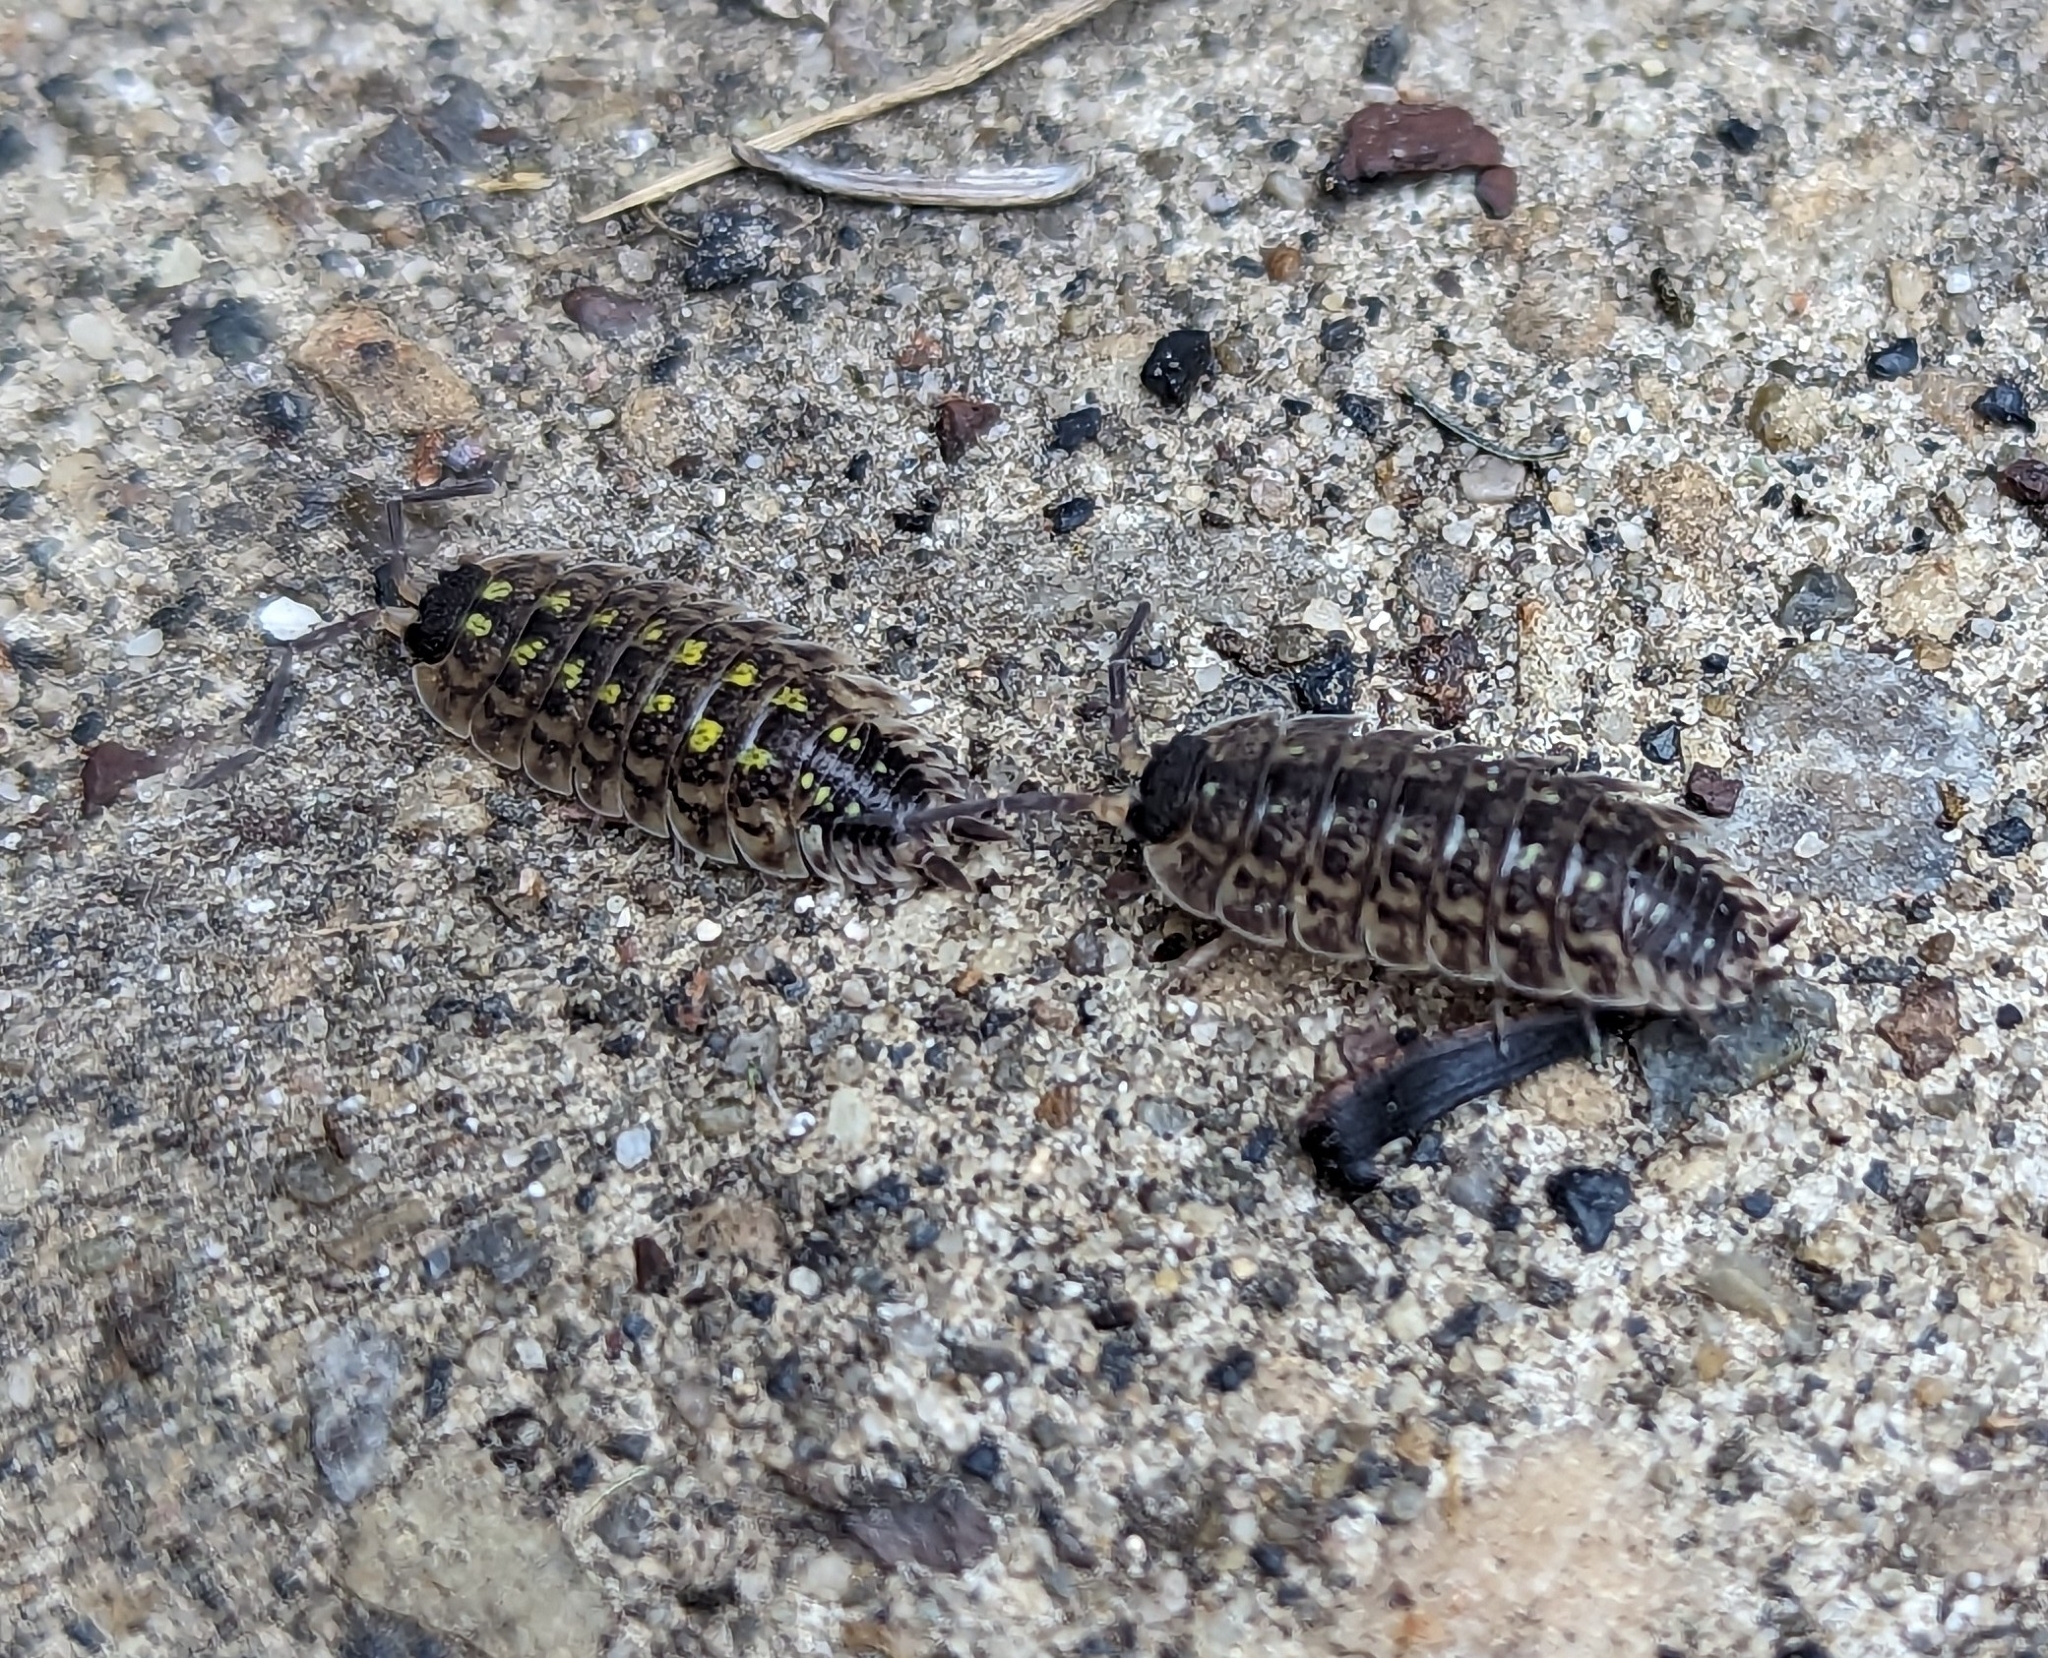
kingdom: Animalia
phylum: Arthropoda
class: Malacostraca
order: Isopoda
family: Porcellionidae
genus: Porcellio
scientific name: Porcellio spinicornis
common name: Painted woodlouse
